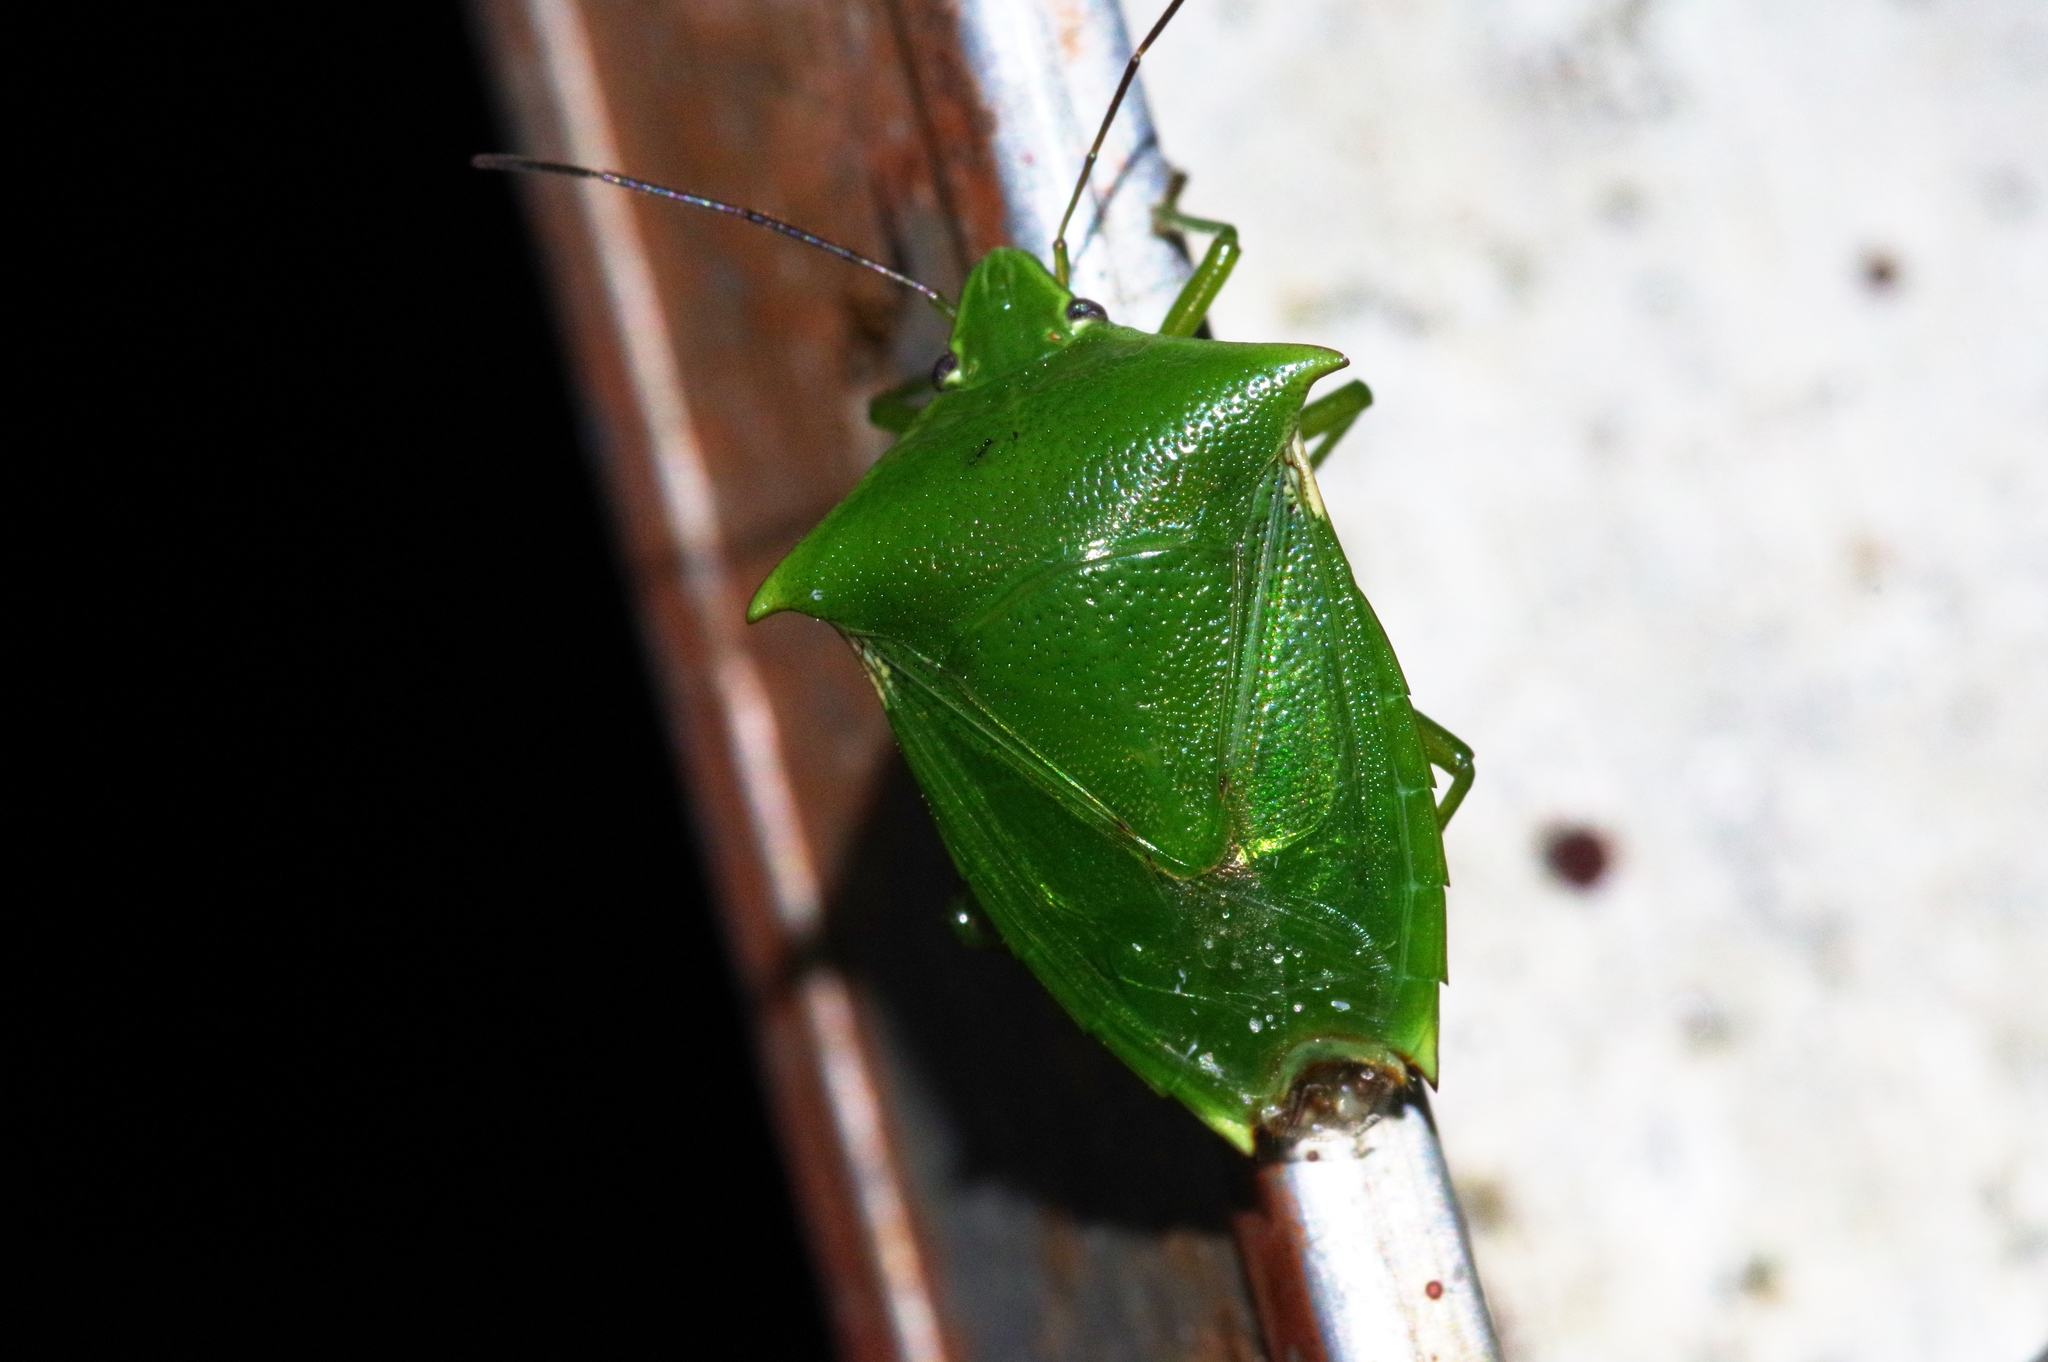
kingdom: Animalia
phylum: Arthropoda
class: Insecta
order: Hemiptera
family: Pentatomidae
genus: Vitellus
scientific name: Vitellus
